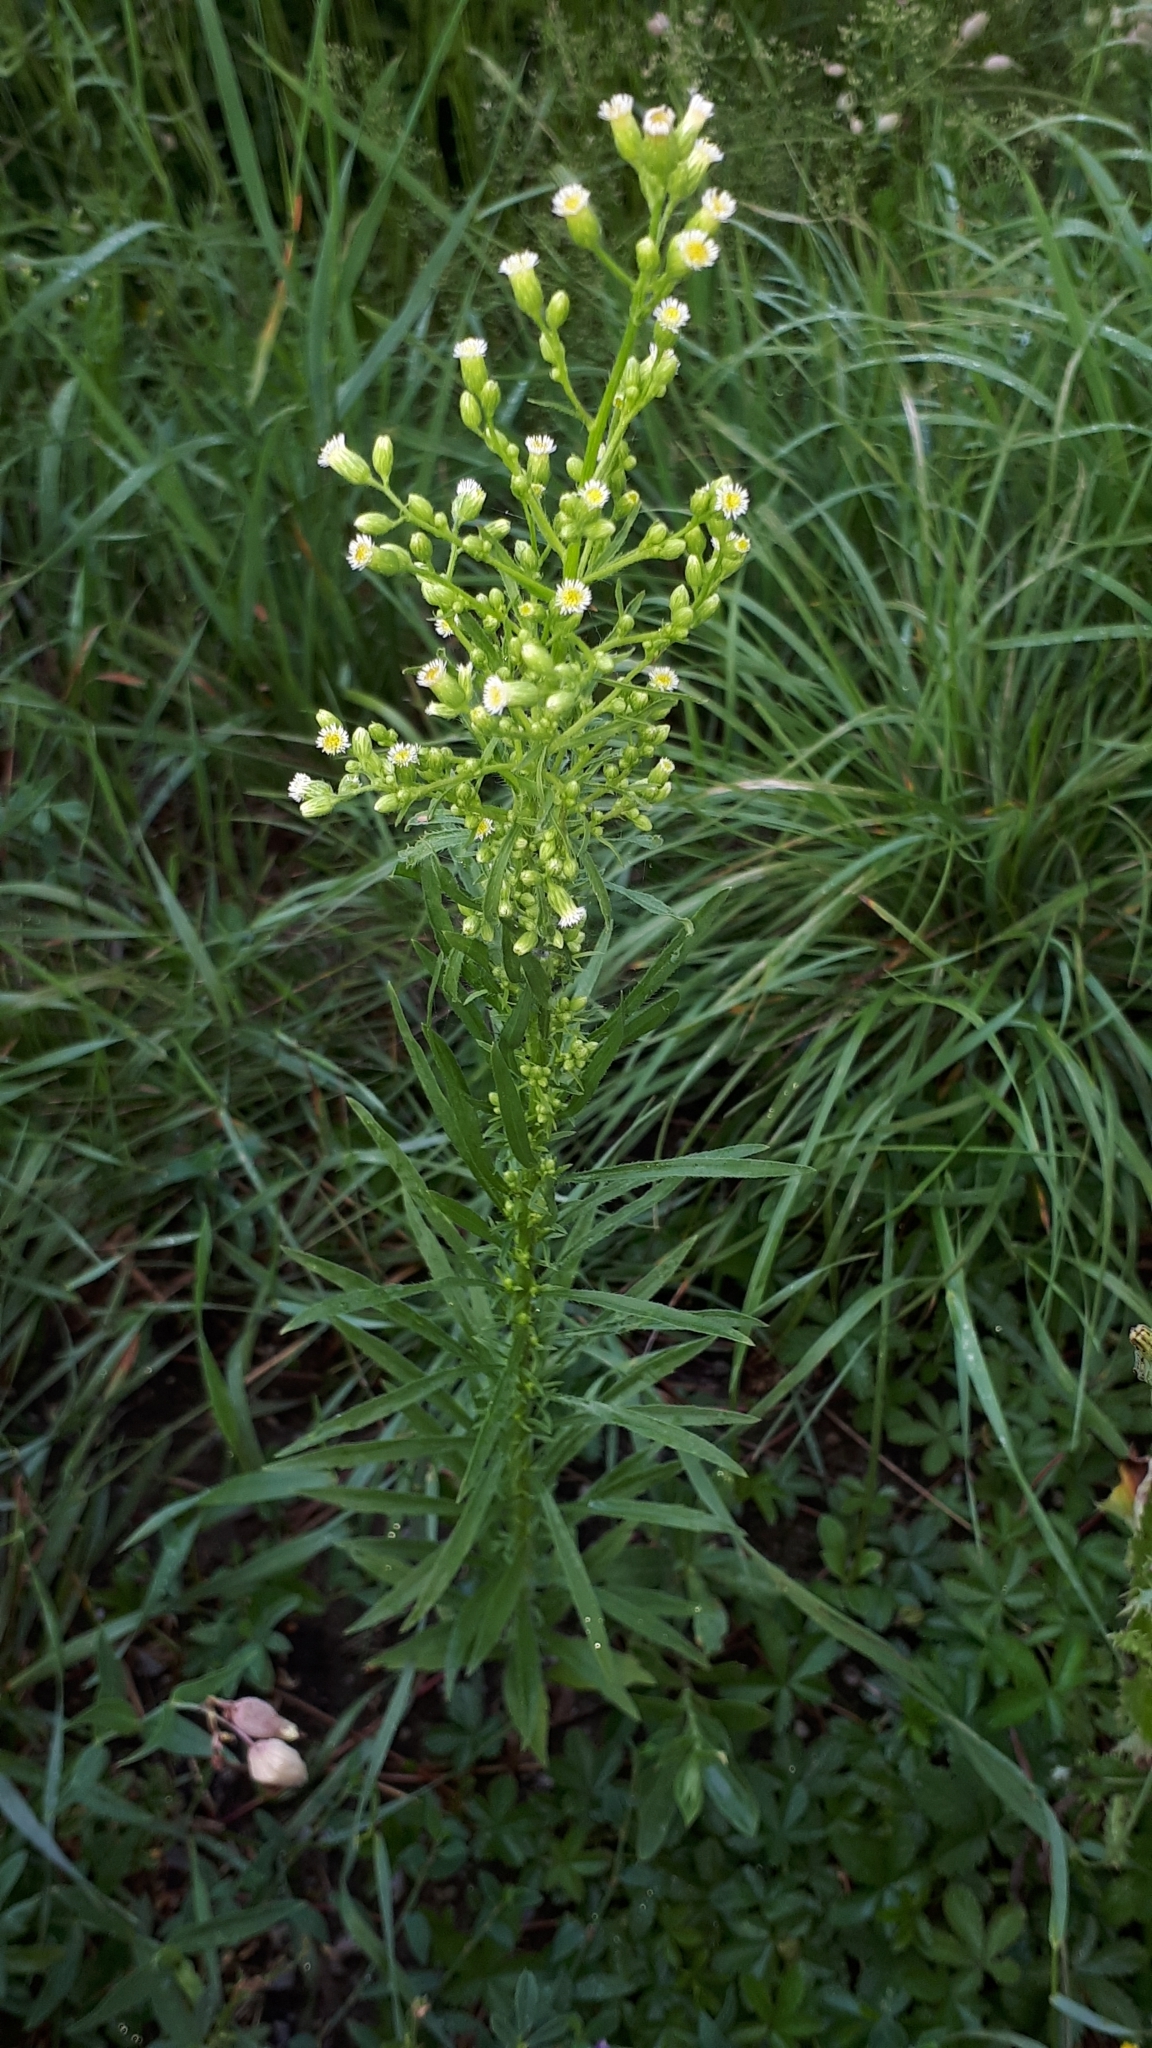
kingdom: Plantae
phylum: Tracheophyta
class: Magnoliopsida
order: Asterales
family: Asteraceae
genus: Erigeron
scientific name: Erigeron canadensis
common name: Canadian fleabane
